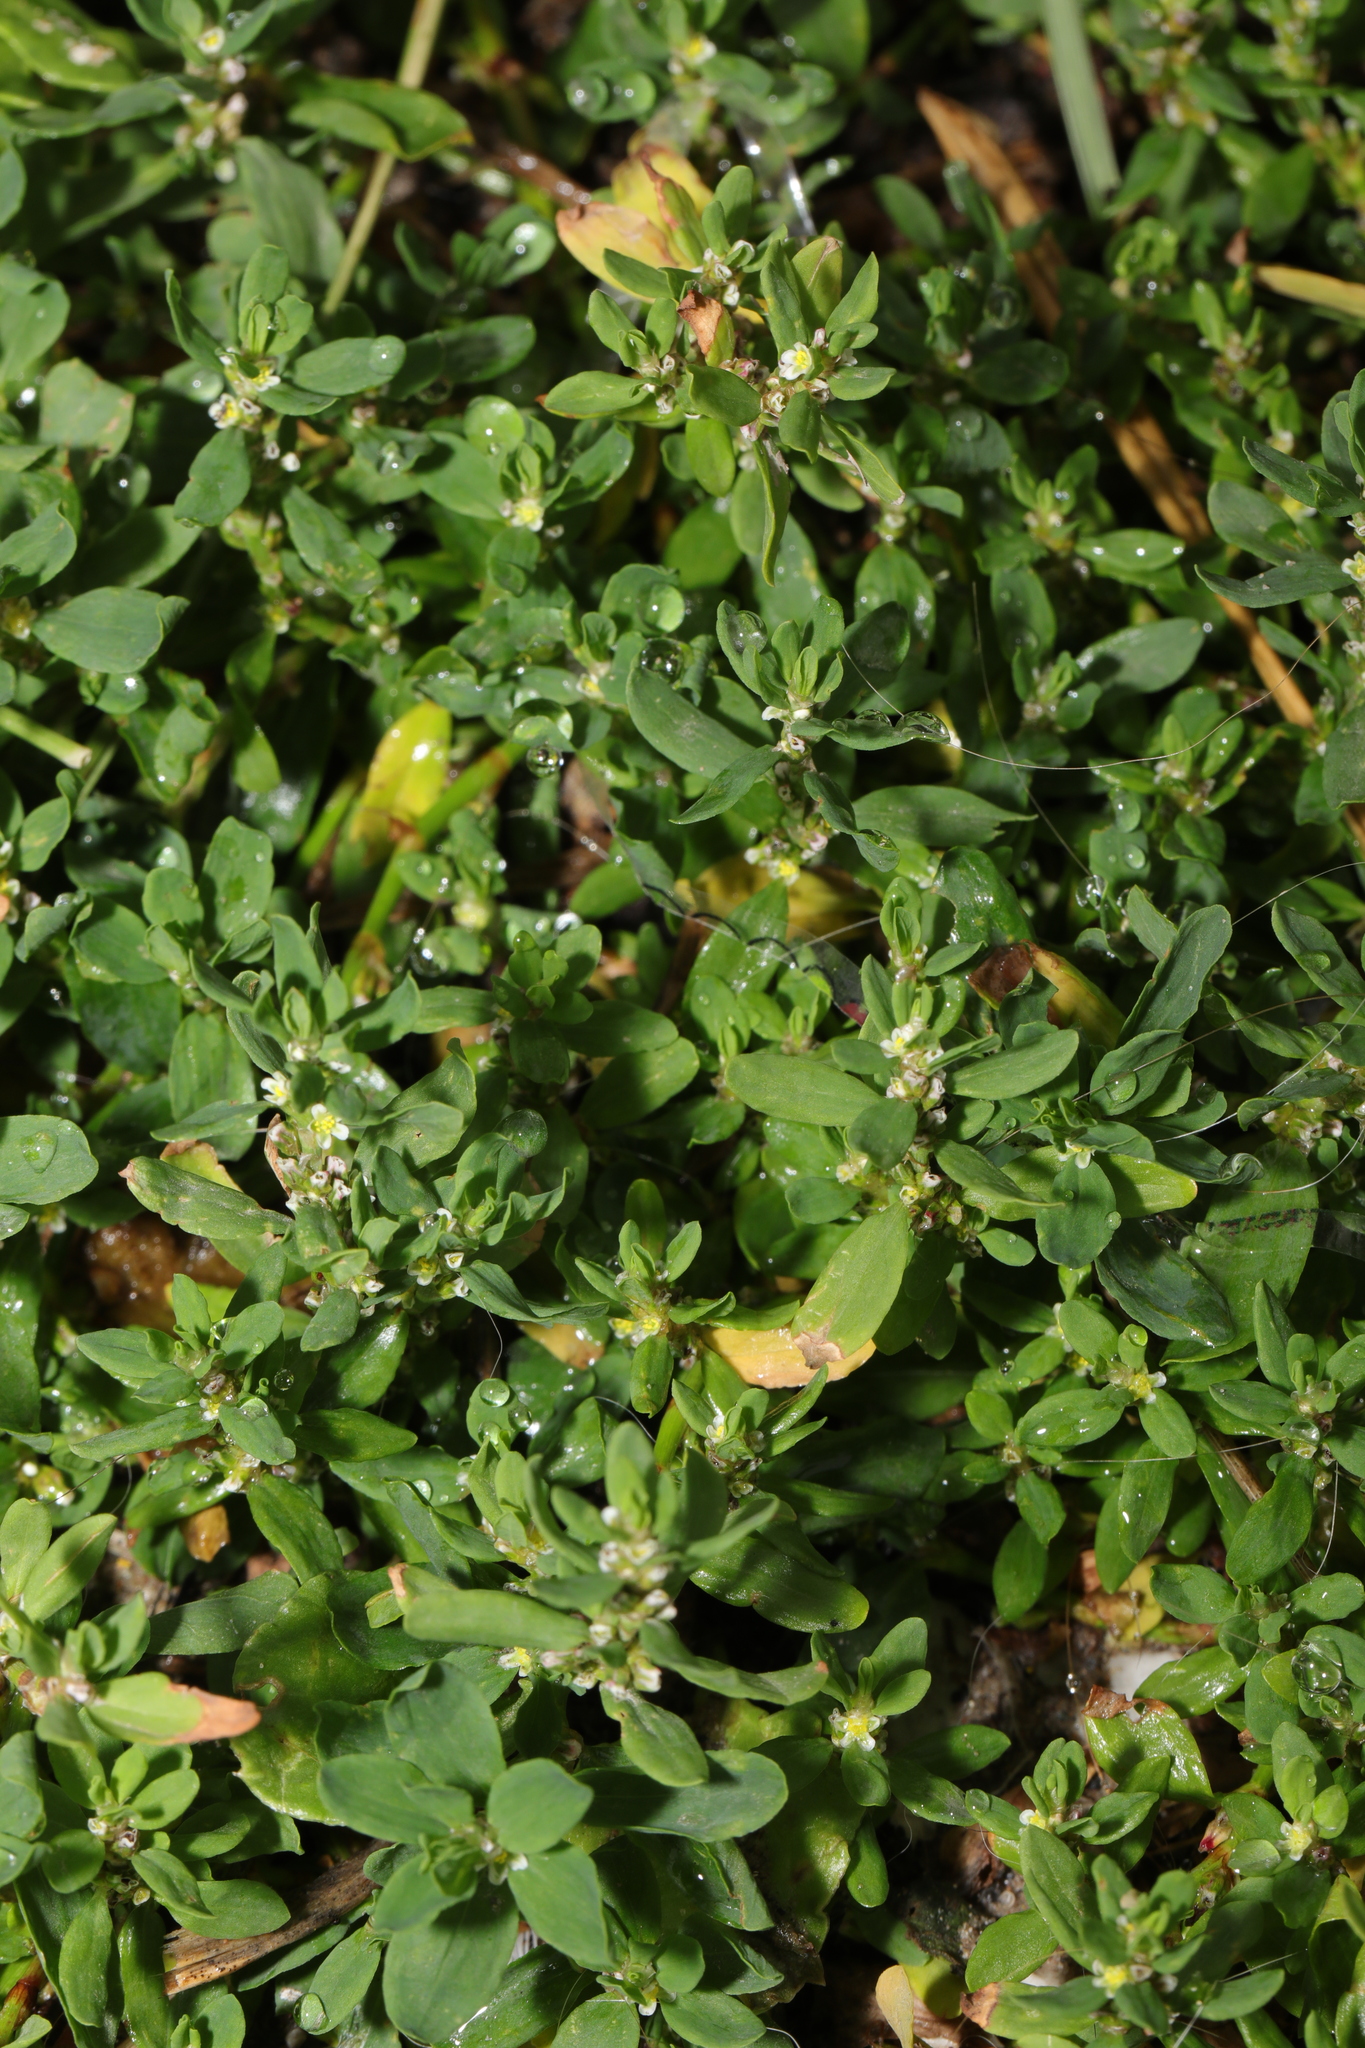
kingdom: Plantae
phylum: Tracheophyta
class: Magnoliopsida
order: Caryophyllales
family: Polygonaceae
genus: Polygonum
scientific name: Polygonum aviculare
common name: Prostrate knotweed
